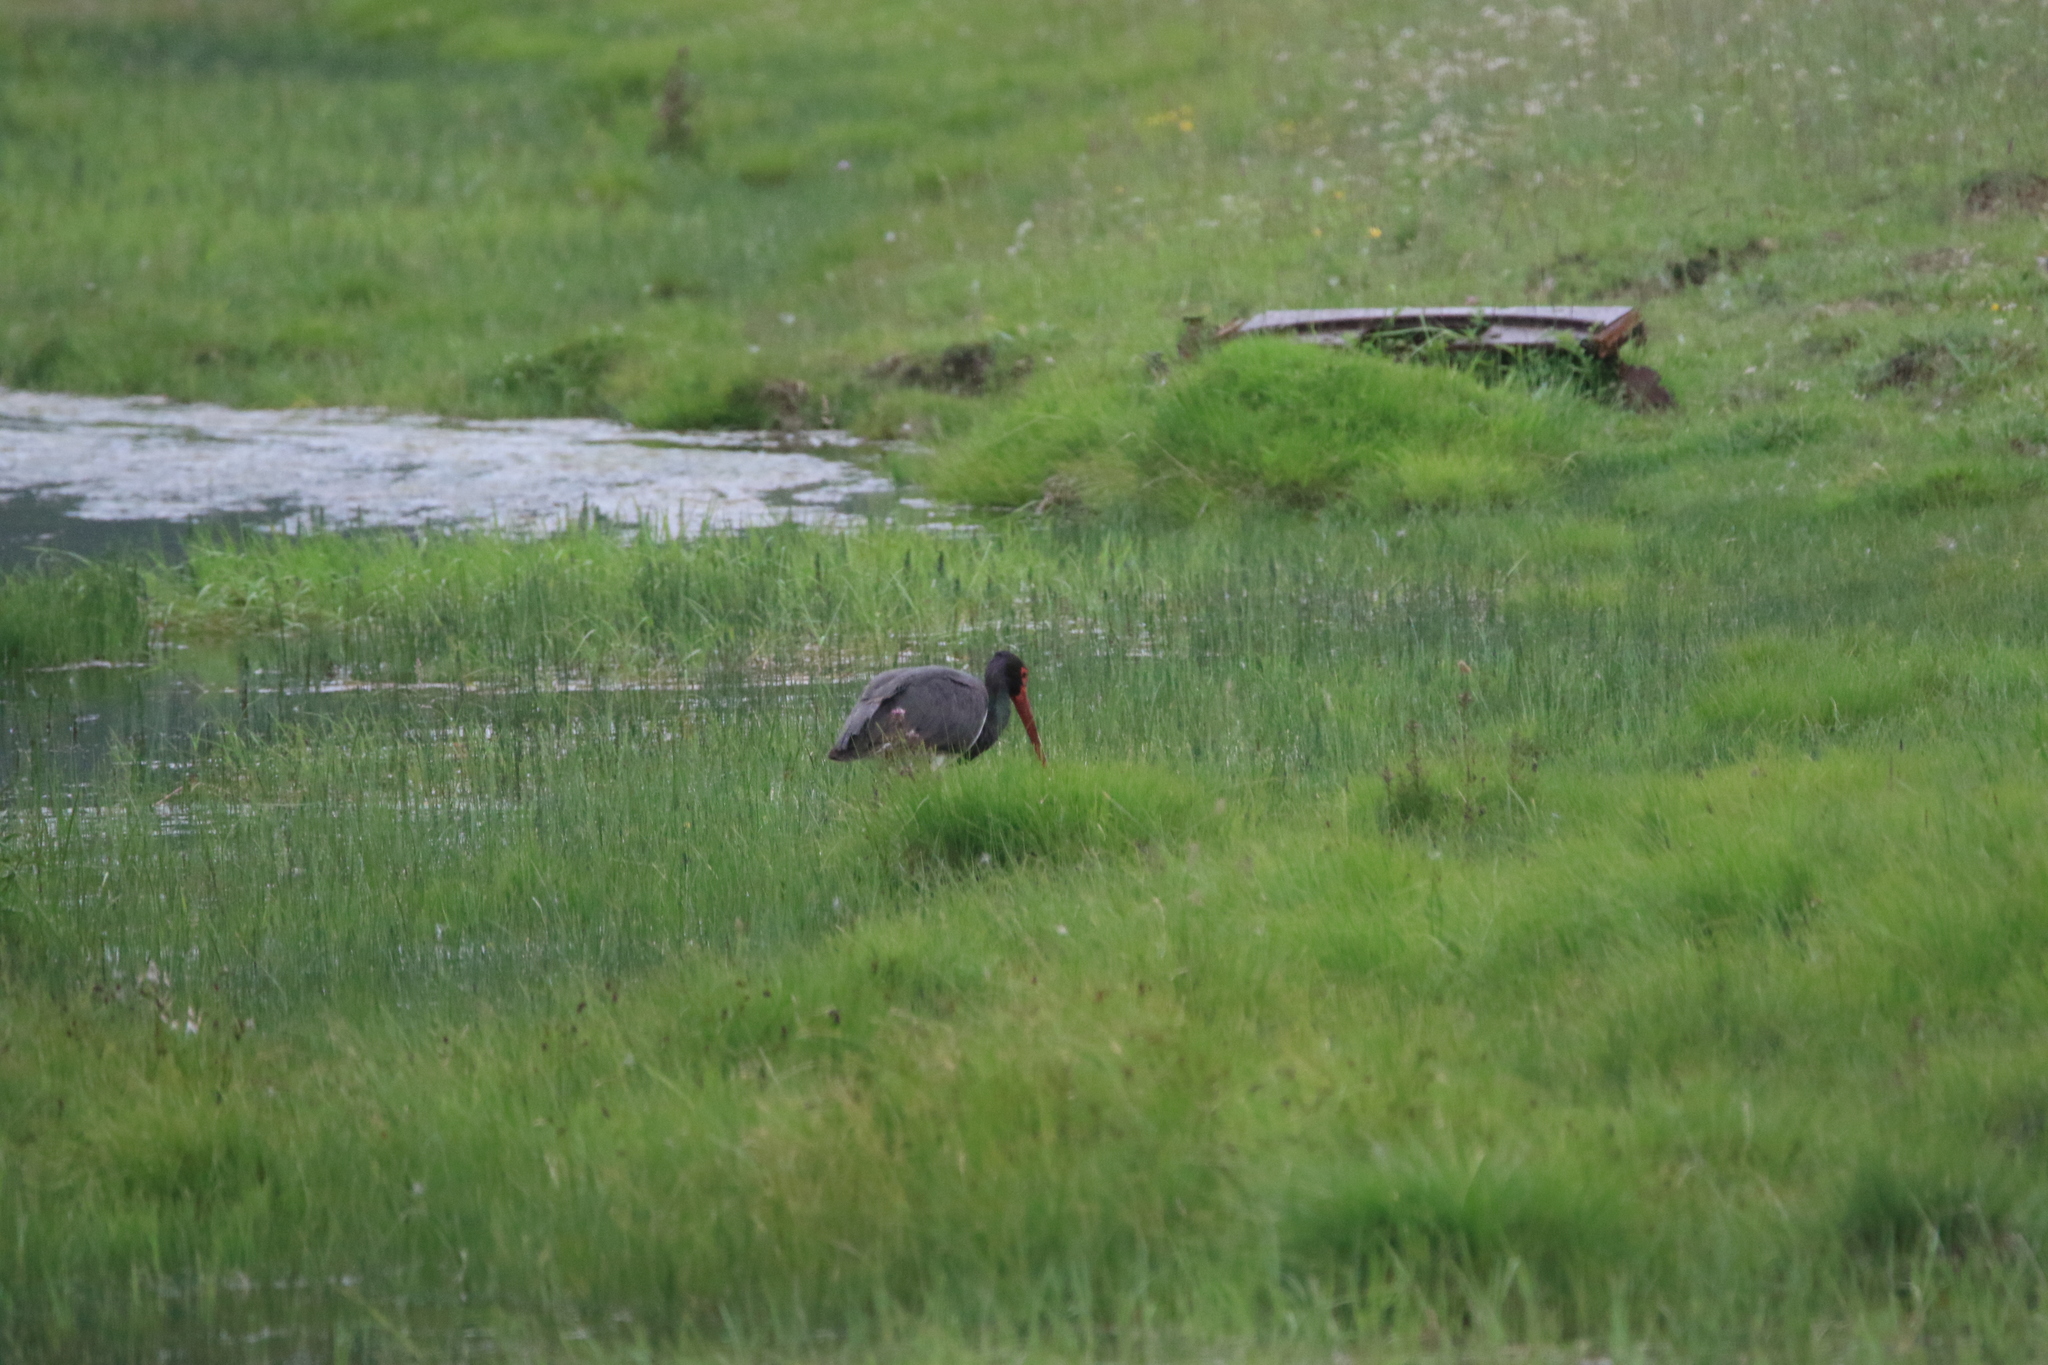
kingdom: Animalia
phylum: Chordata
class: Aves
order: Ciconiiformes
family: Ciconiidae
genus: Ciconia
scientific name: Ciconia nigra
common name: Black stork
